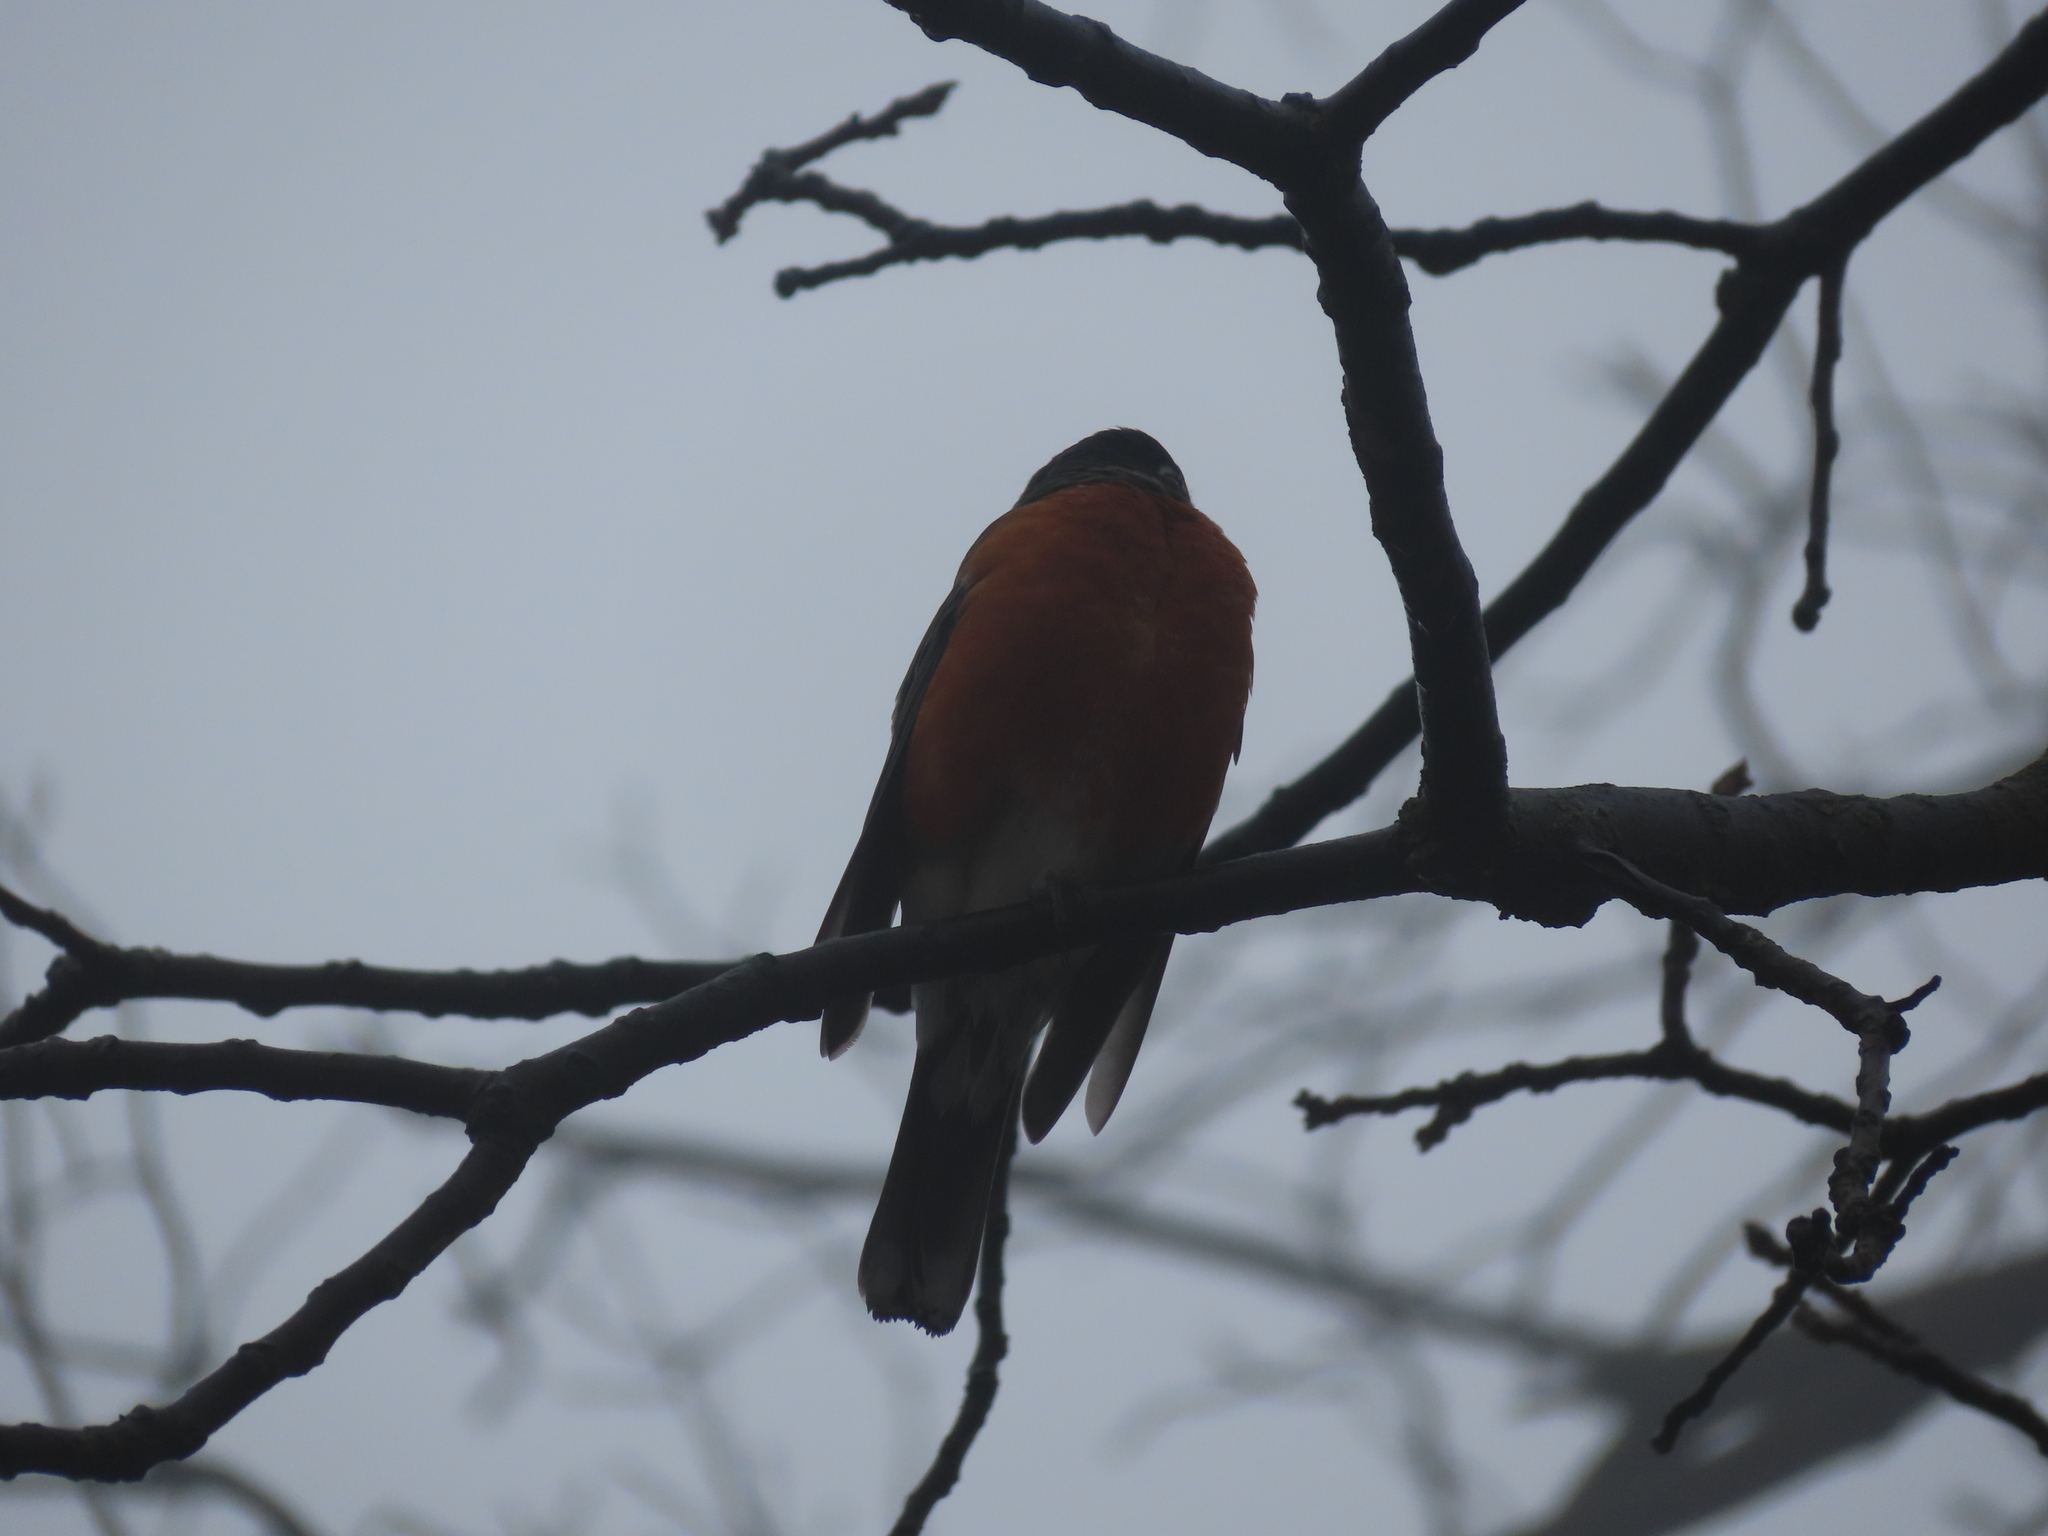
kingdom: Animalia
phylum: Chordata
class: Aves
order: Passeriformes
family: Turdidae
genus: Turdus
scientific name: Turdus migratorius
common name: American robin
